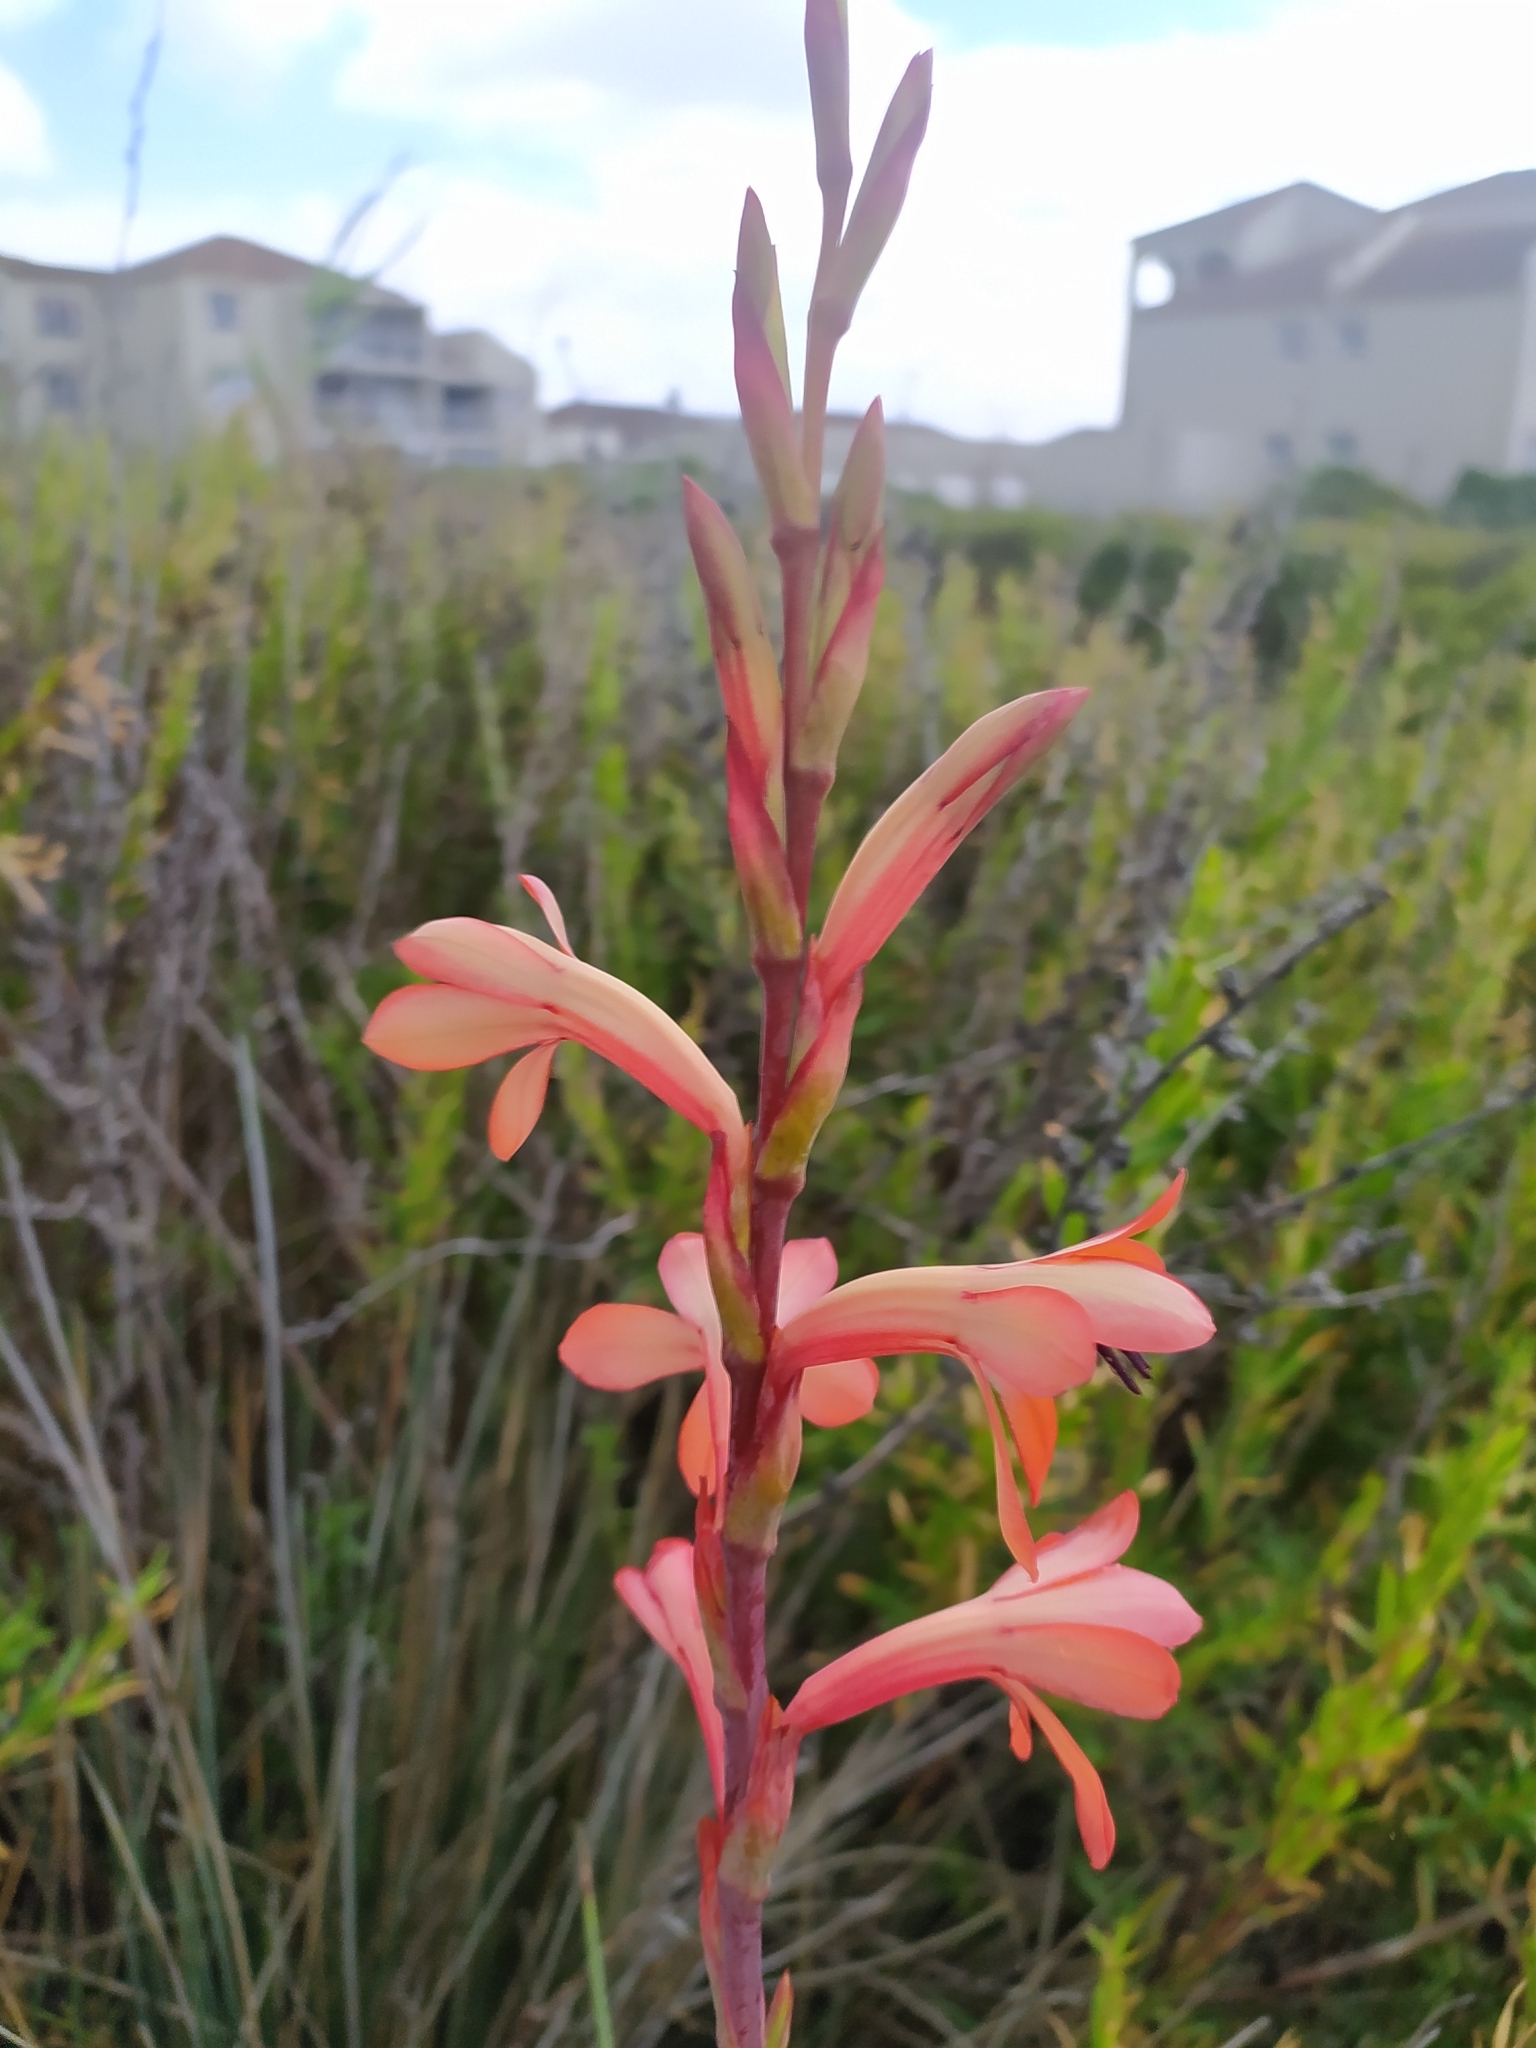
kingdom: Plantae
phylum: Tracheophyta
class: Liliopsida
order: Asparagales
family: Iridaceae
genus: Watsonia
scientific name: Watsonia meriana
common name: Bulbil bugle-lily
